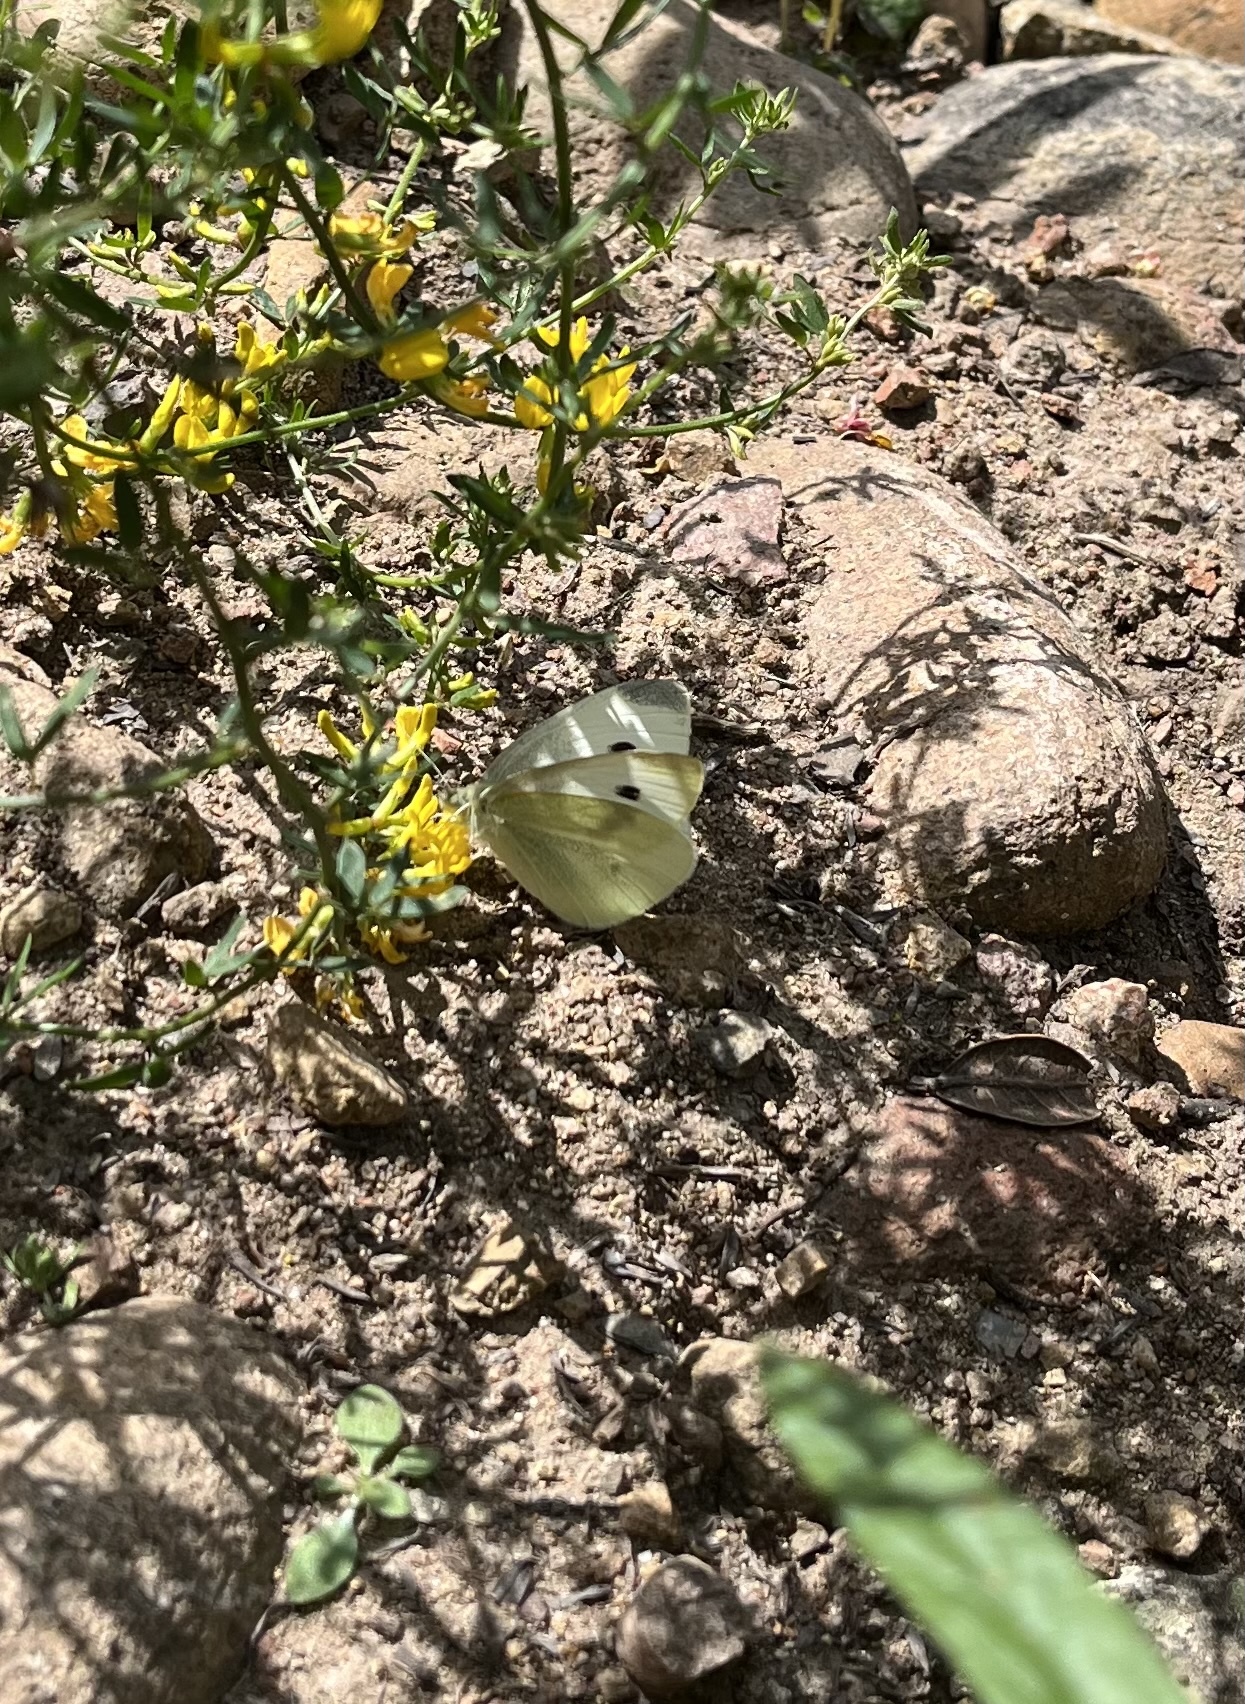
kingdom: Animalia
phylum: Arthropoda
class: Insecta
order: Lepidoptera
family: Pieridae
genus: Pieris
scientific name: Pieris rapae
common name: Small white
